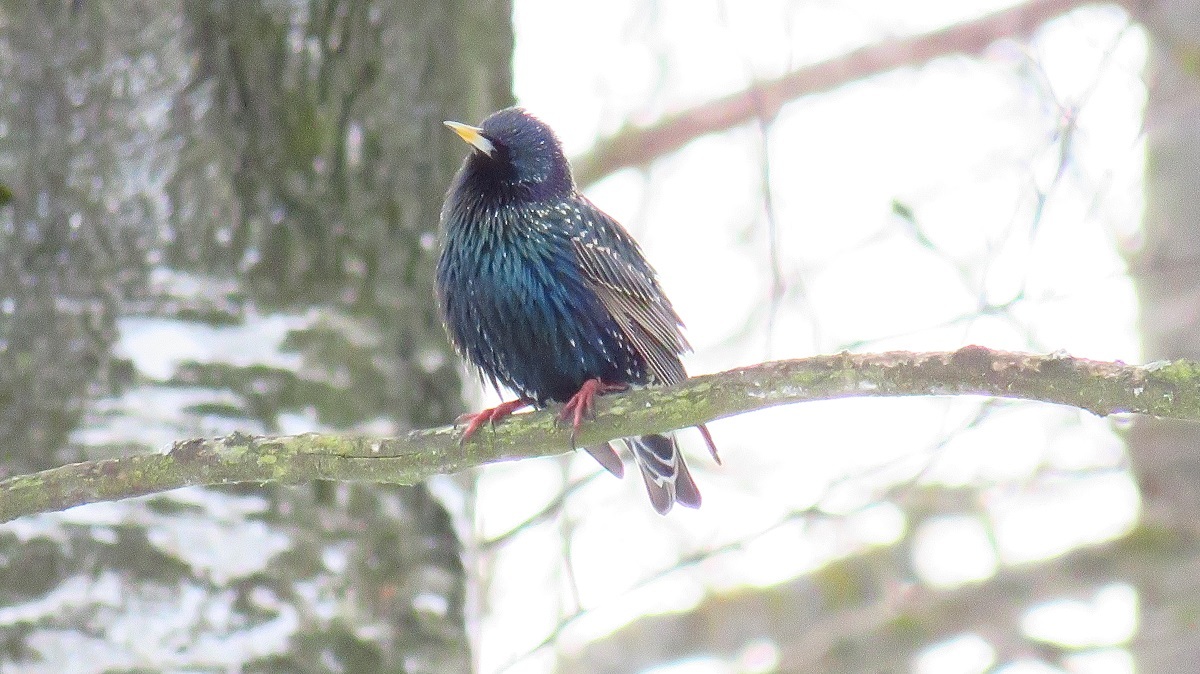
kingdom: Animalia
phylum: Chordata
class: Aves
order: Passeriformes
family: Sturnidae
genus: Sturnus
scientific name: Sturnus vulgaris
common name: Common starling
